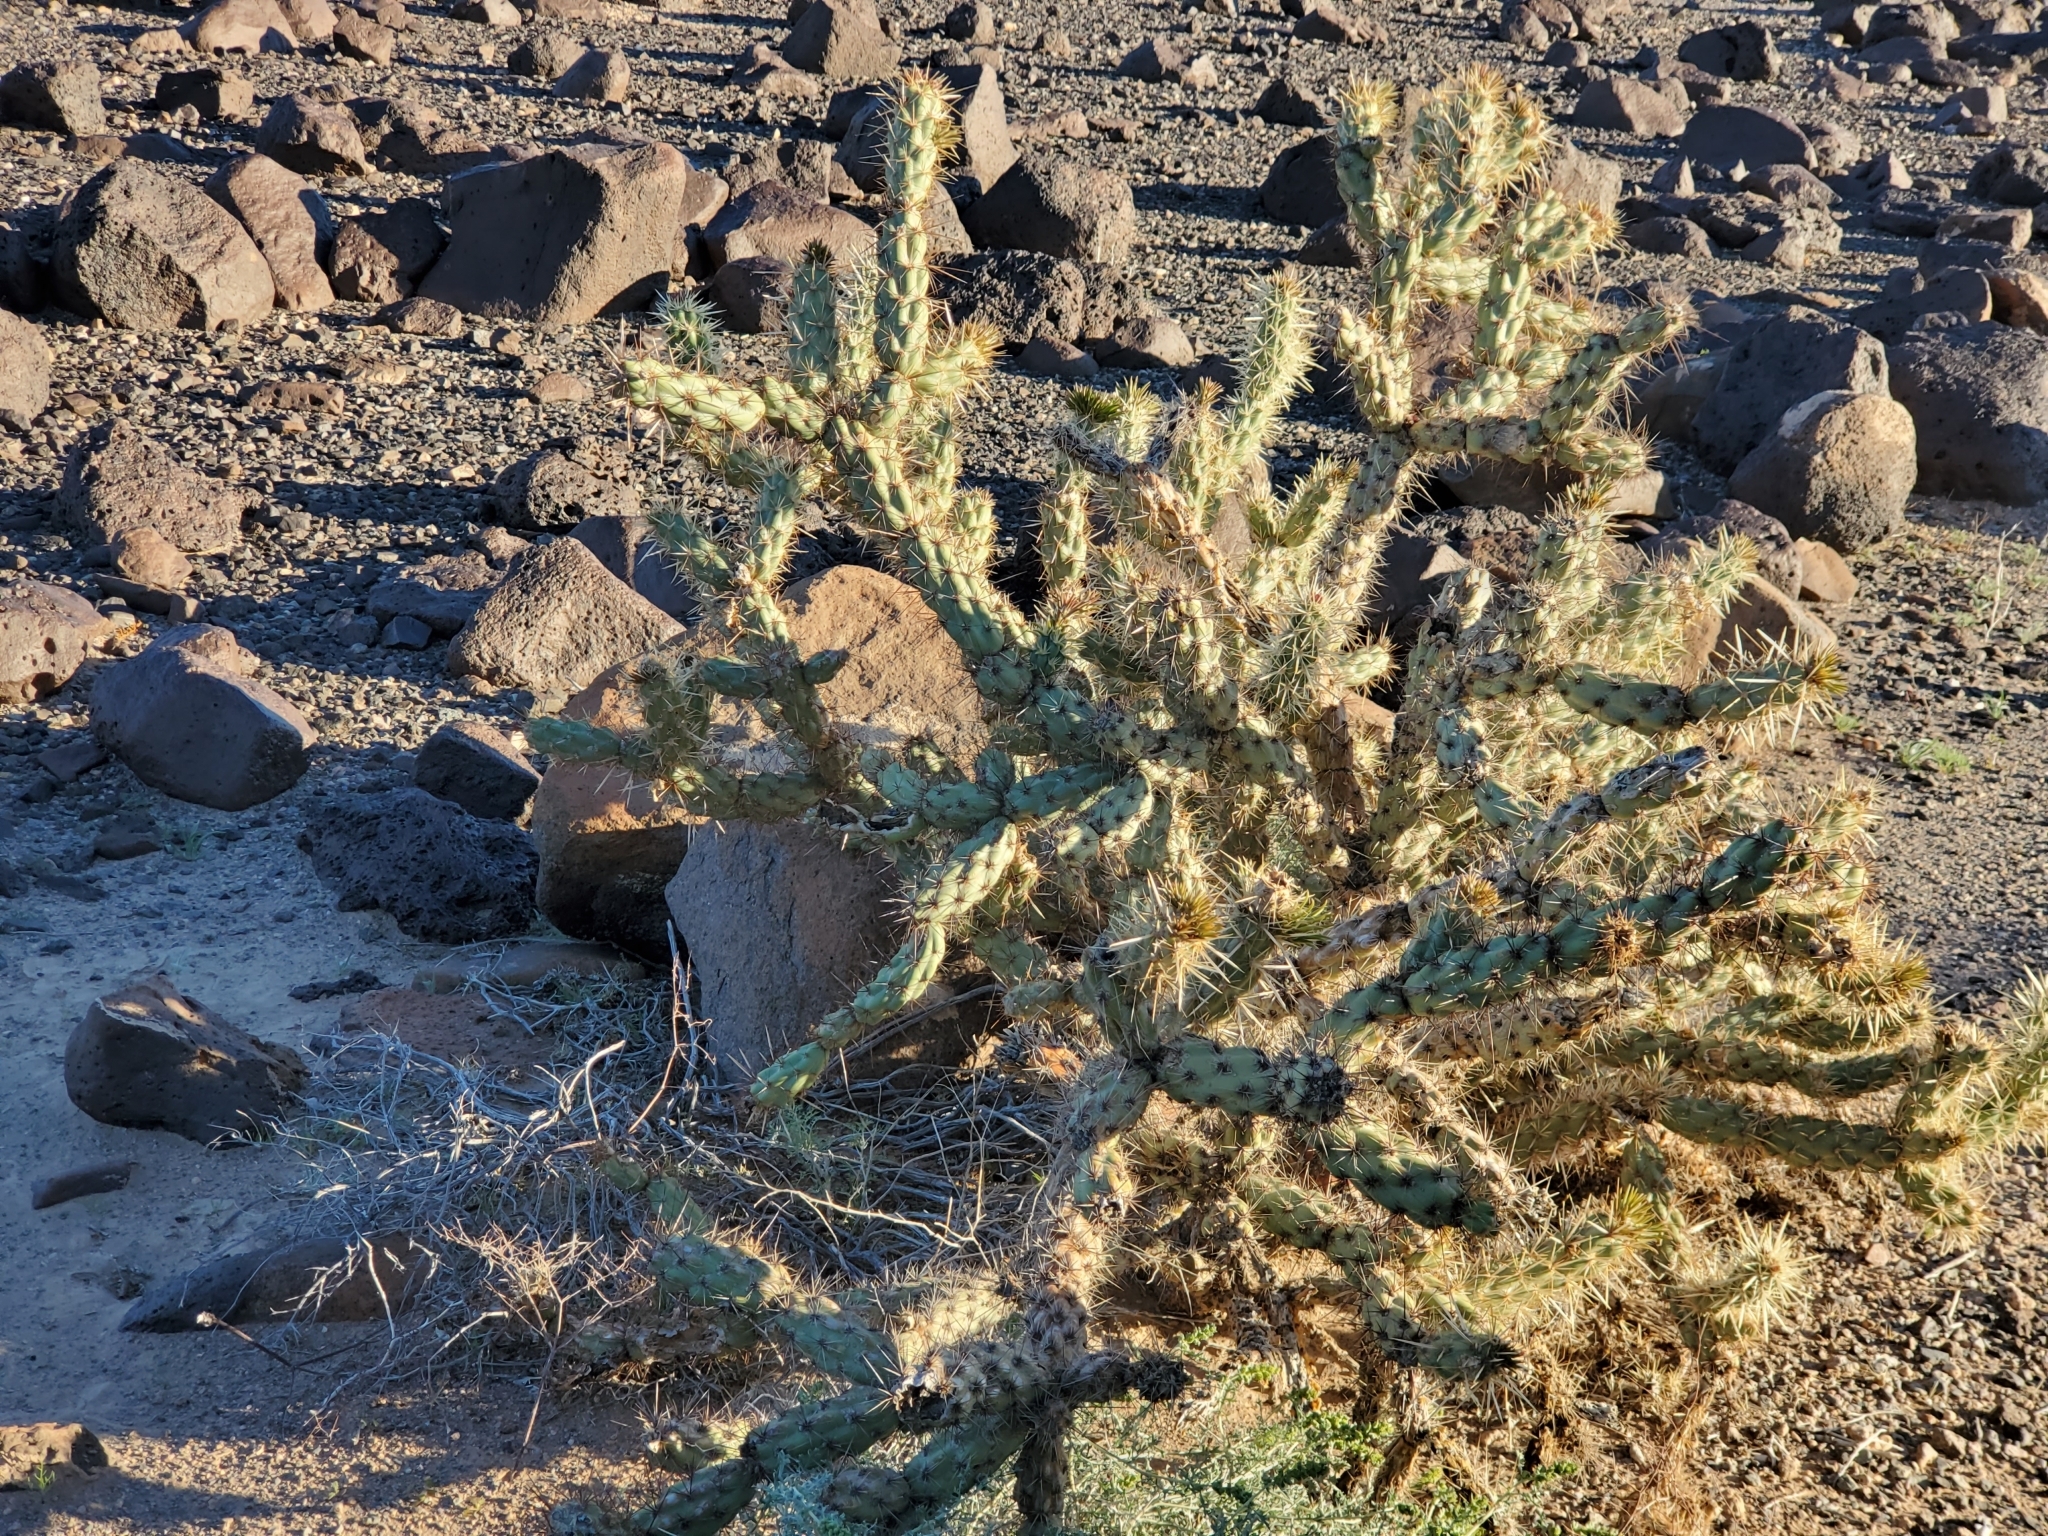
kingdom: Plantae
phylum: Tracheophyta
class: Magnoliopsida
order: Caryophyllales
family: Cactaceae
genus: Cylindropuntia
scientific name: Cylindropuntia acanthocarpa
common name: Buckhorn cholla
